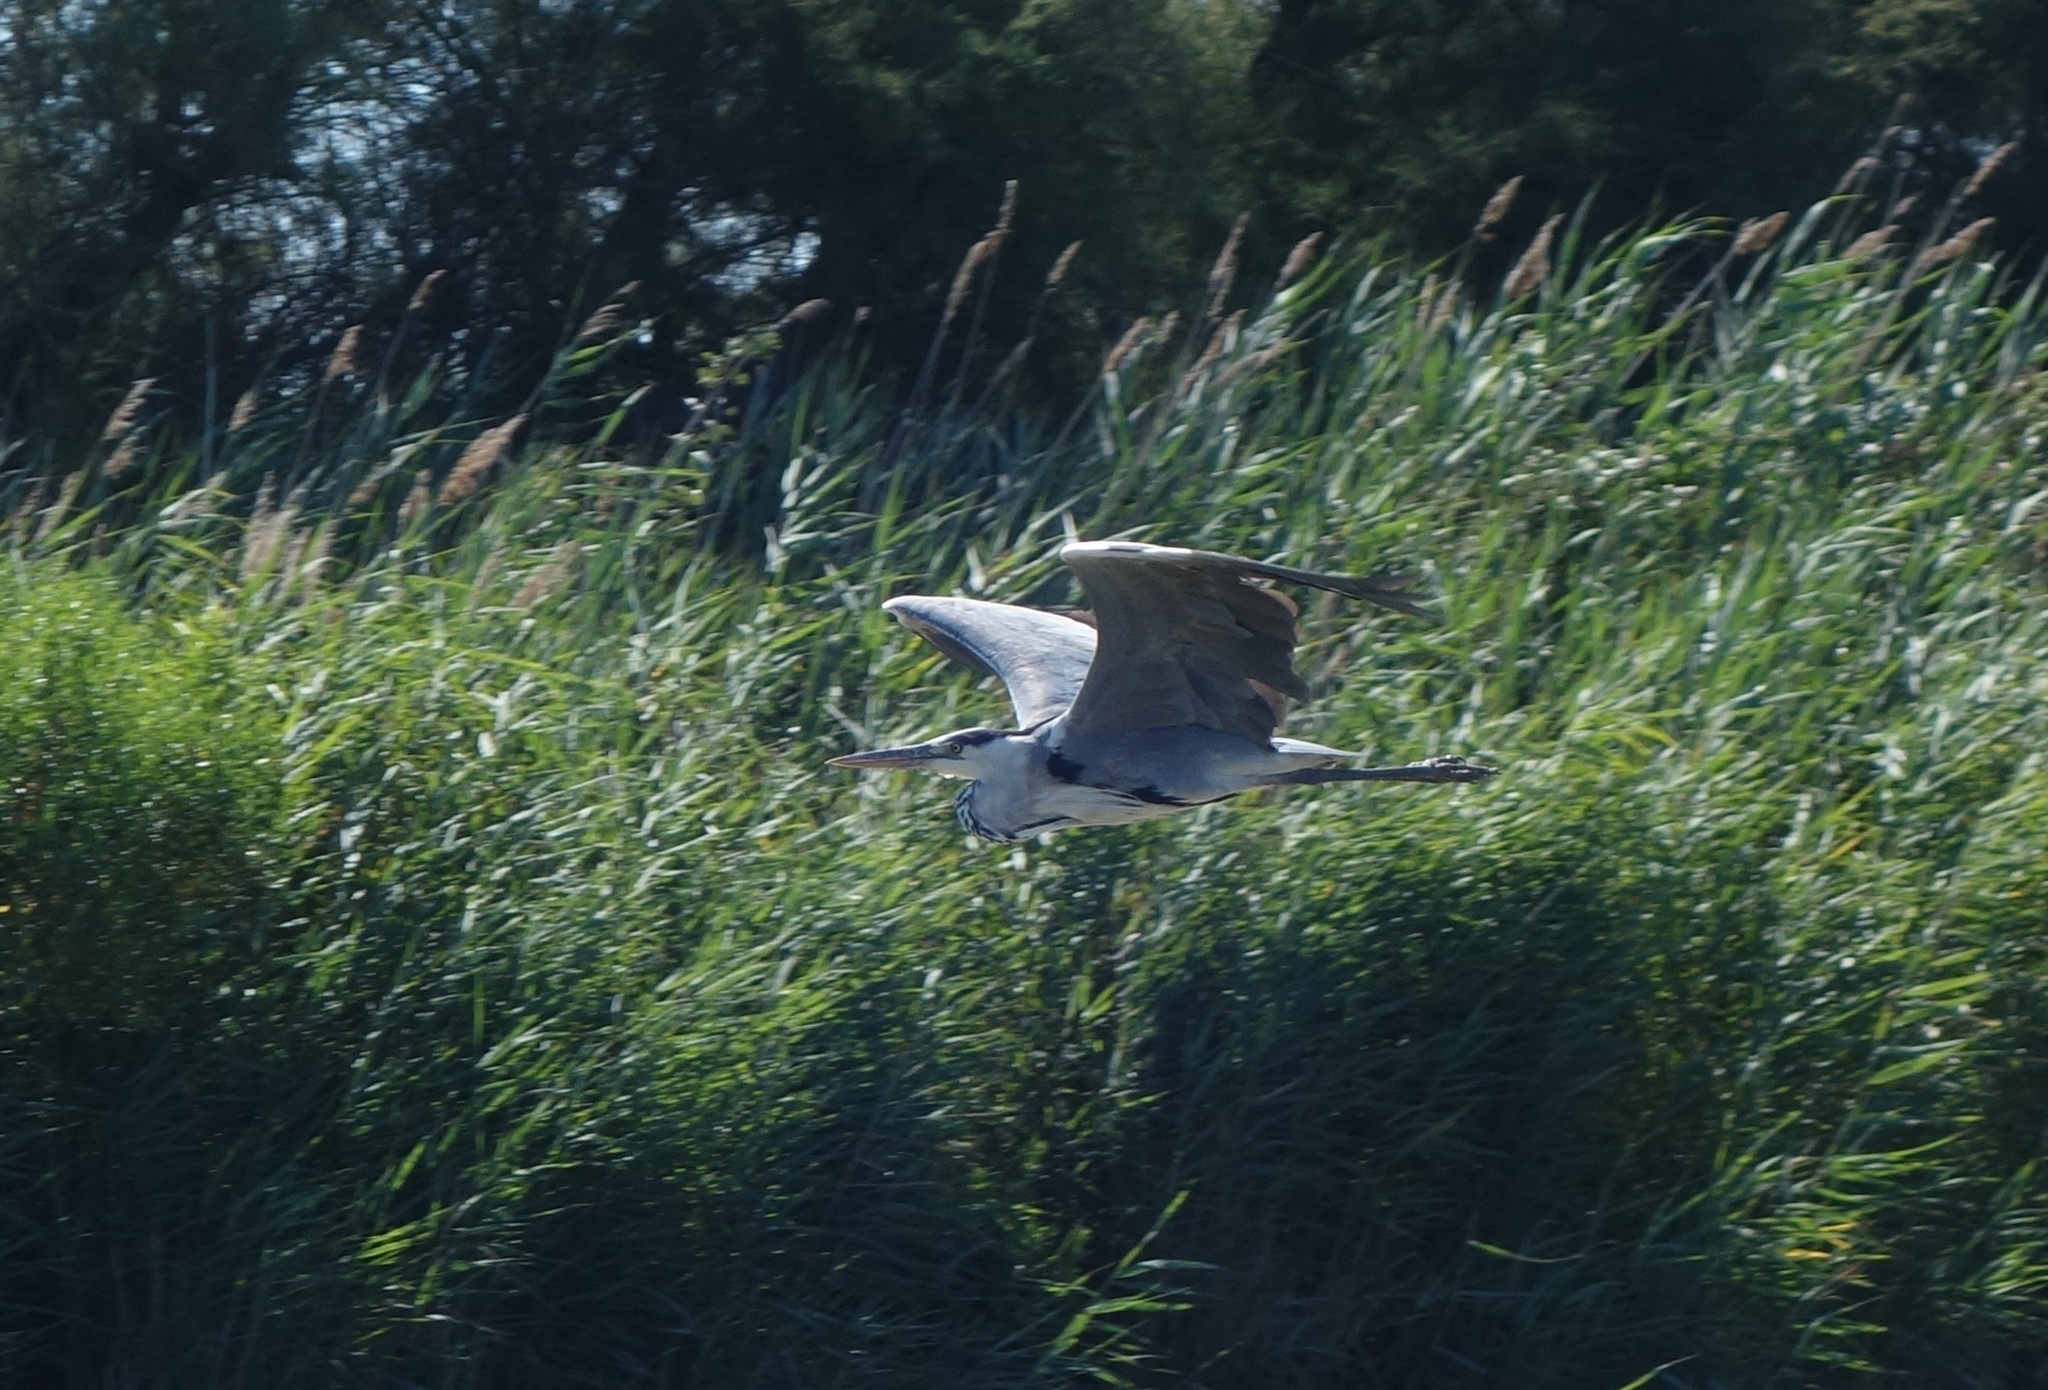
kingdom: Animalia
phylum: Chordata
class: Aves
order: Pelecaniformes
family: Ardeidae
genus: Ardea
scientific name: Ardea cinerea
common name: Grey heron
